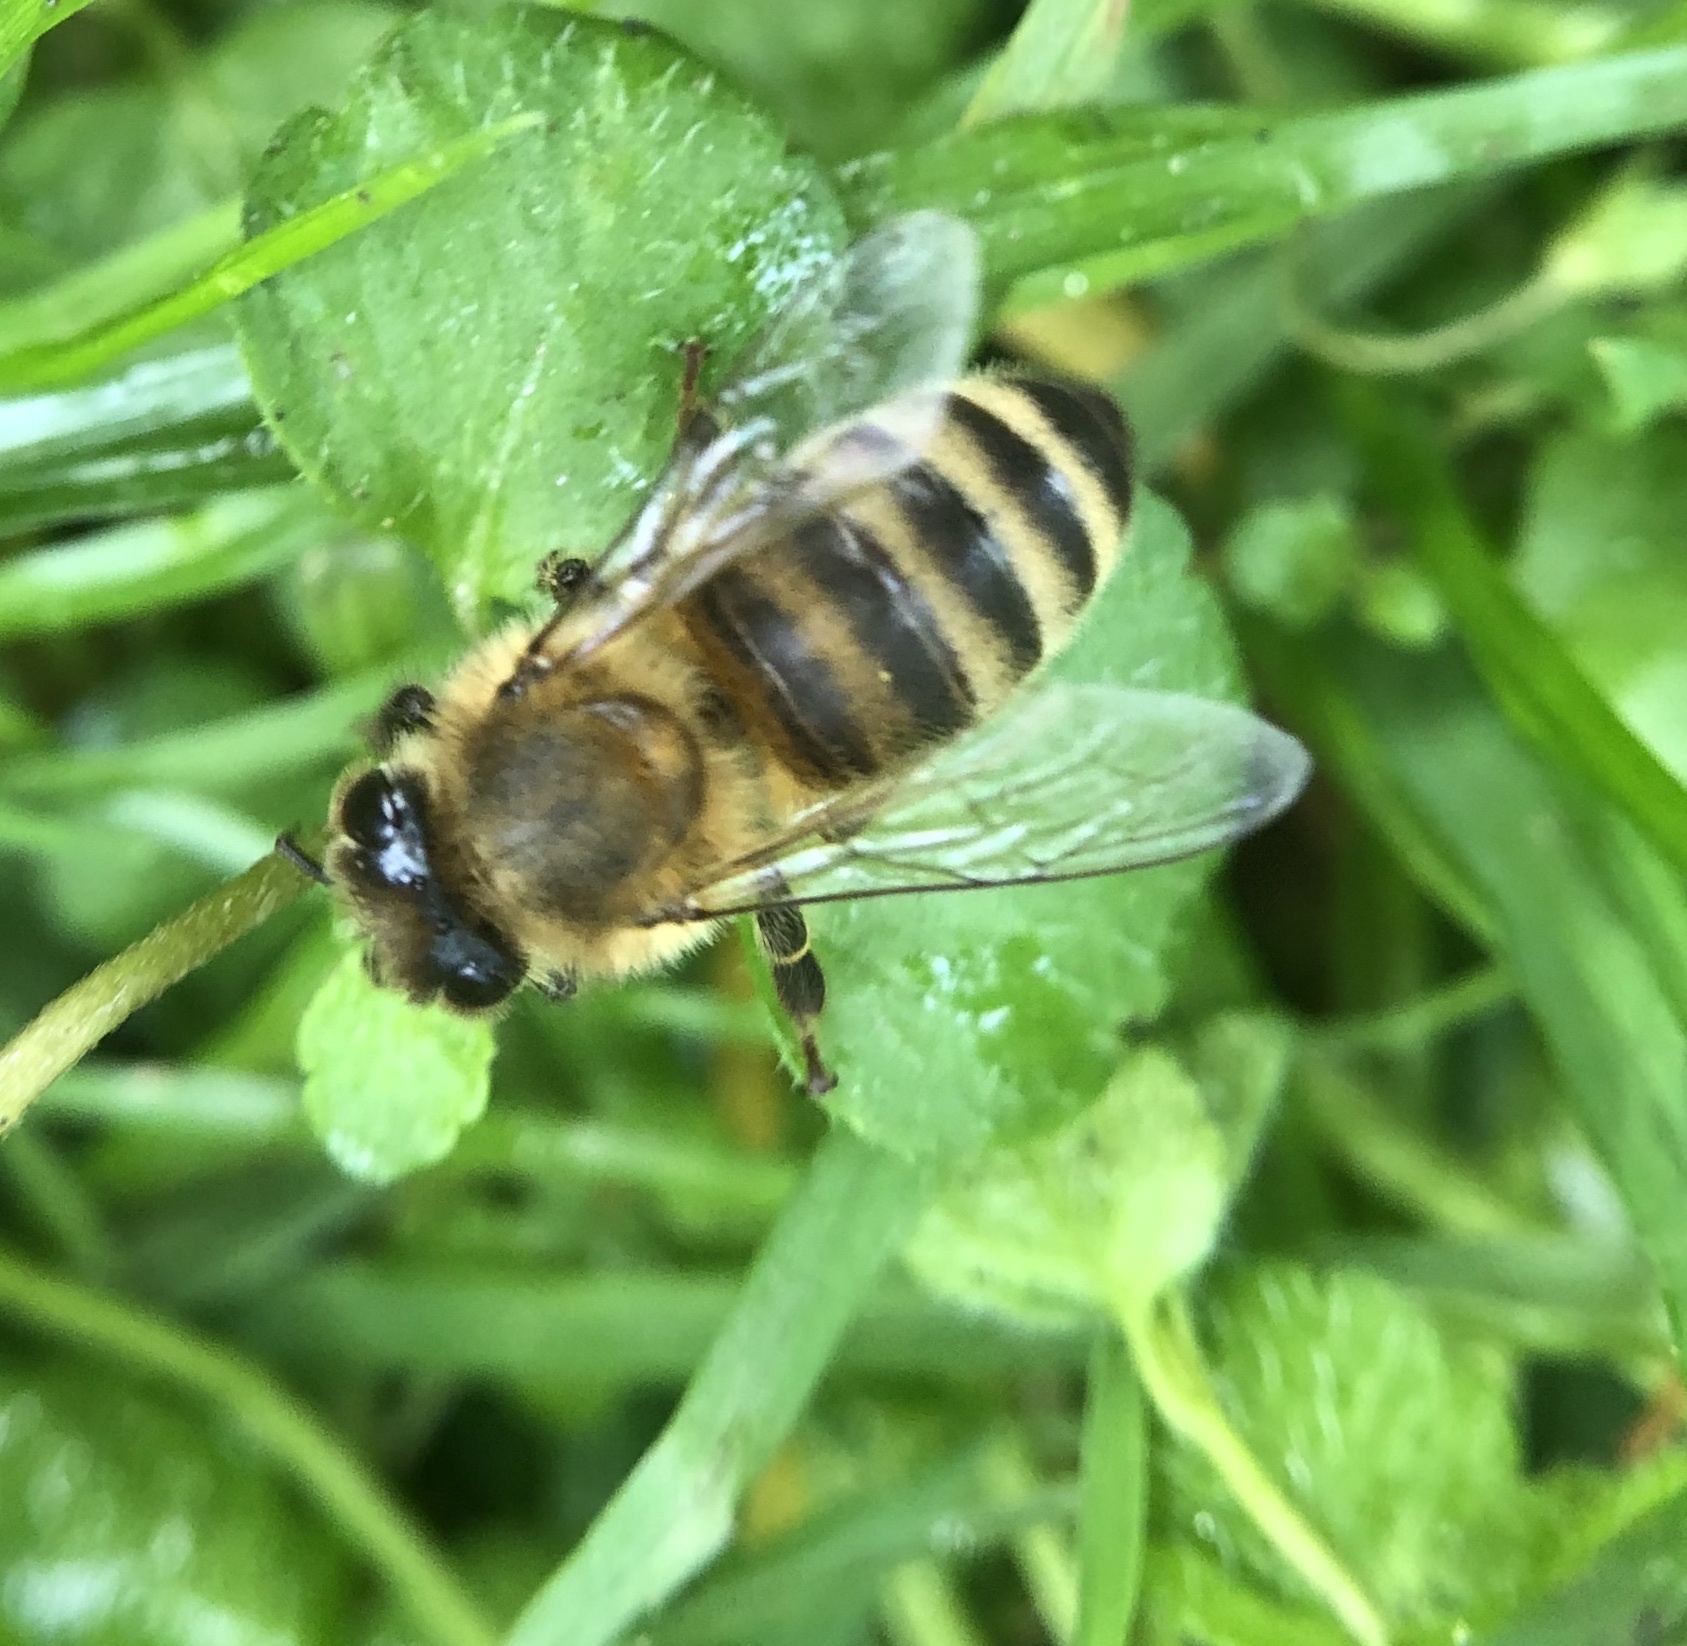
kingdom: Animalia
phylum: Arthropoda
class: Insecta
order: Hymenoptera
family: Apidae
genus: Apis
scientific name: Apis mellifera
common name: Honey bee
